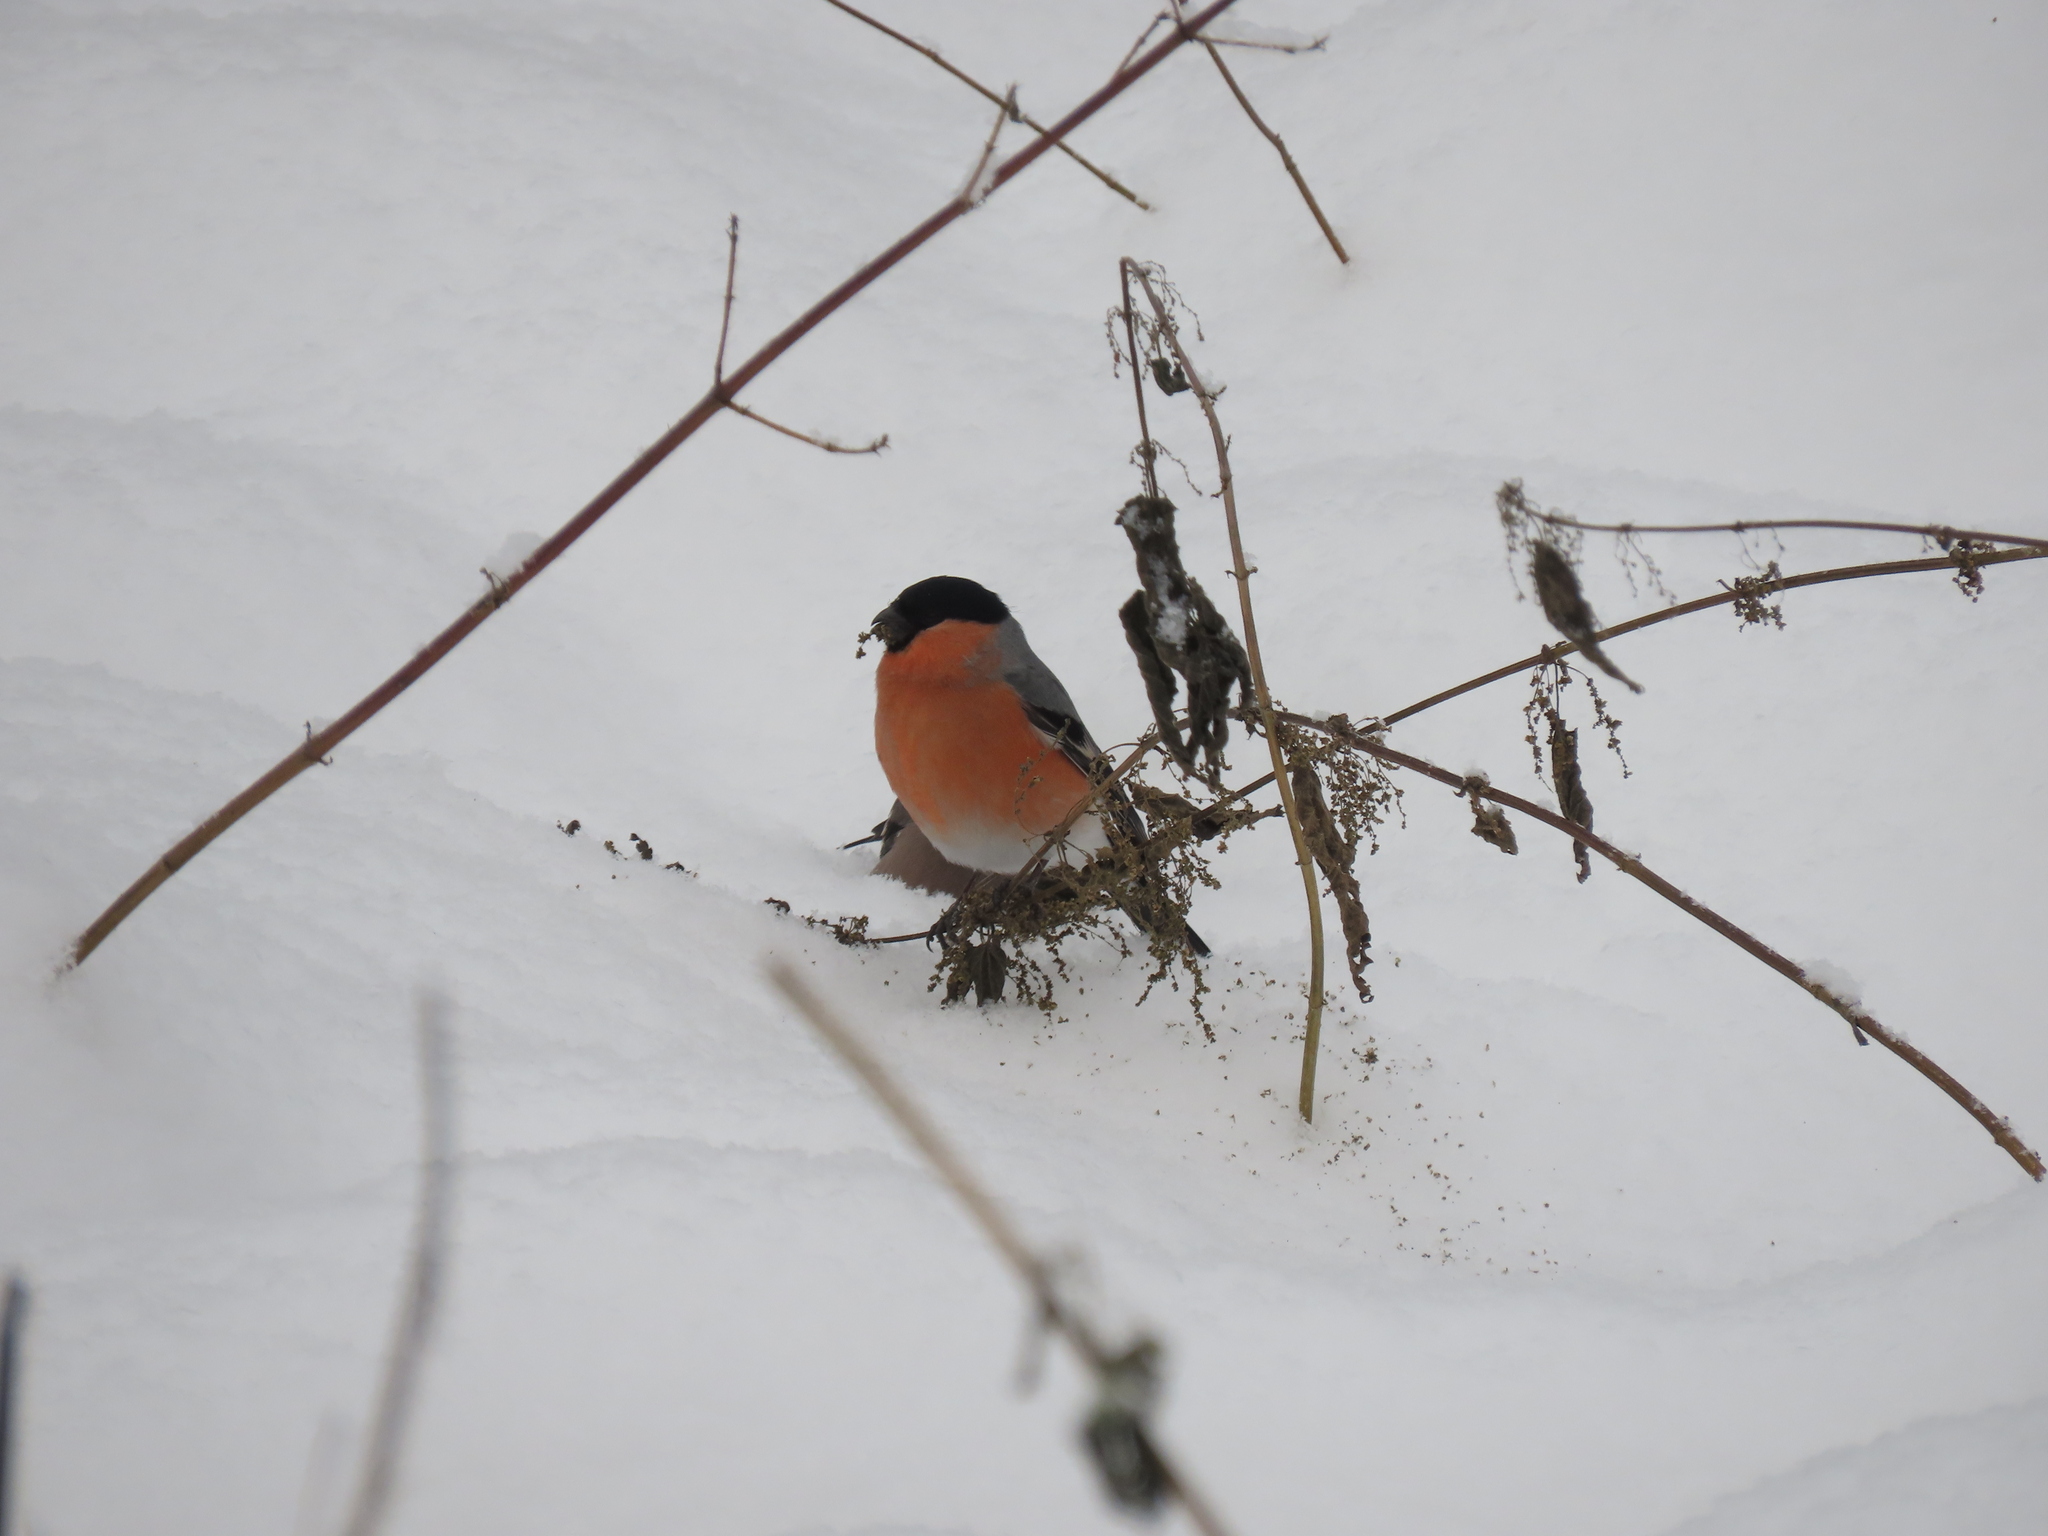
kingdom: Animalia
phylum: Chordata
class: Aves
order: Passeriformes
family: Fringillidae
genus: Pyrrhula
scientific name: Pyrrhula pyrrhula
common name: Eurasian bullfinch
